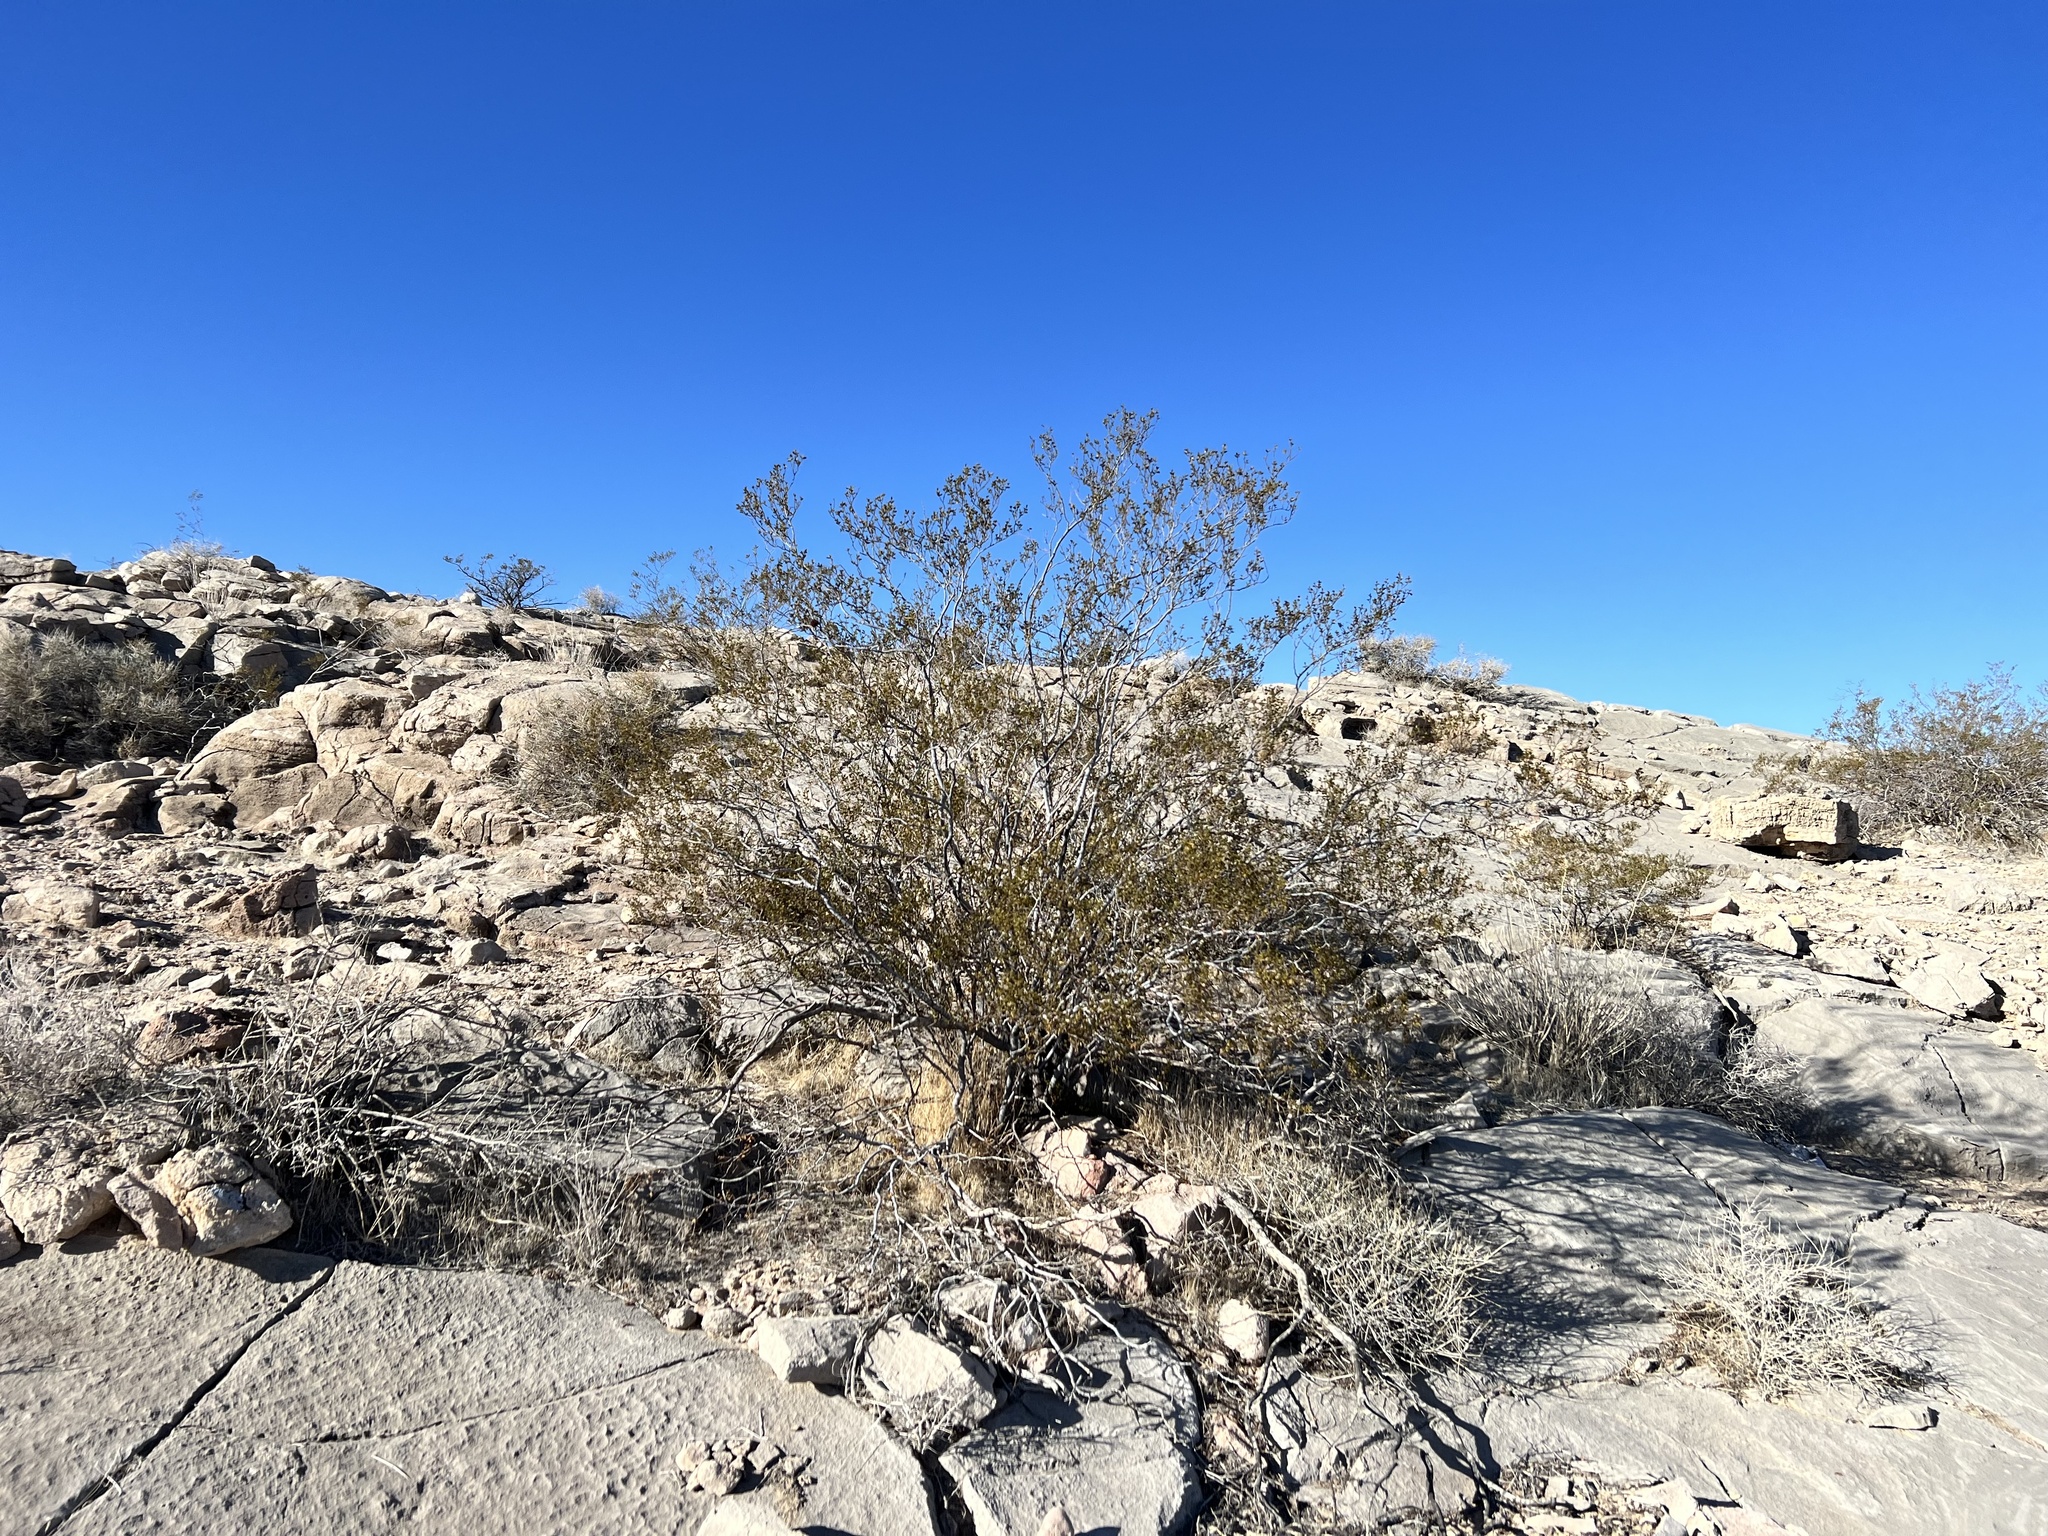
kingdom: Plantae
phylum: Tracheophyta
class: Magnoliopsida
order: Zygophyllales
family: Zygophyllaceae
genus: Larrea
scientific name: Larrea tridentata
